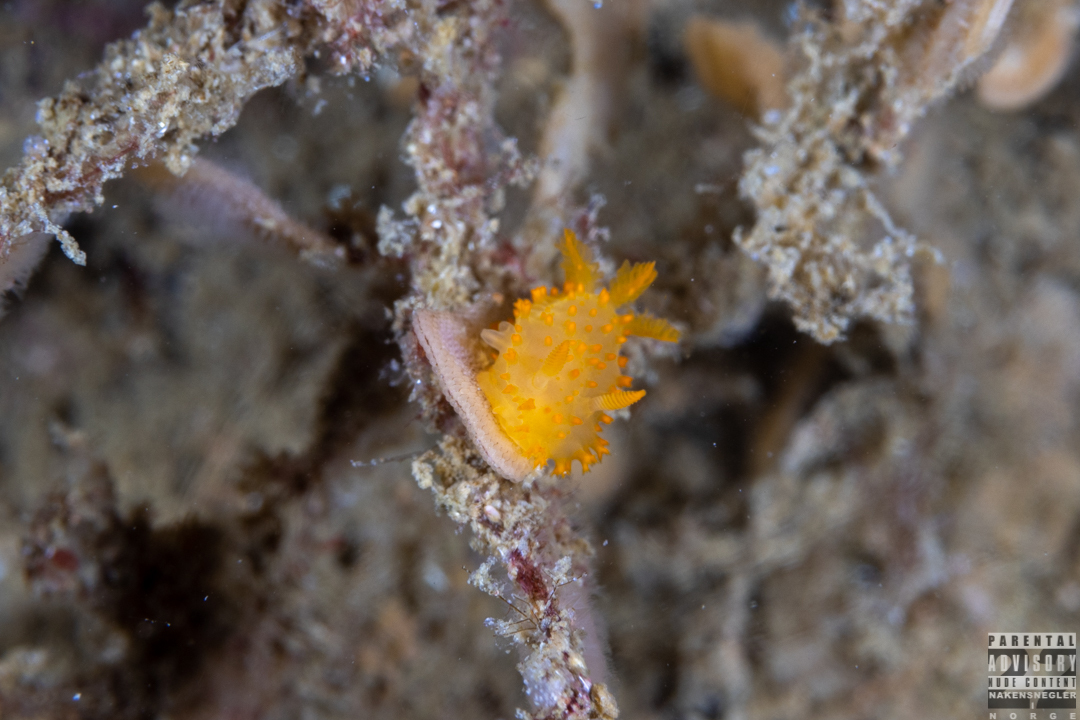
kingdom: Animalia
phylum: Mollusca
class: Gastropoda
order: Nudibranchia
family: Polyceridae
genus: Crimora
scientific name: Crimora papillata
